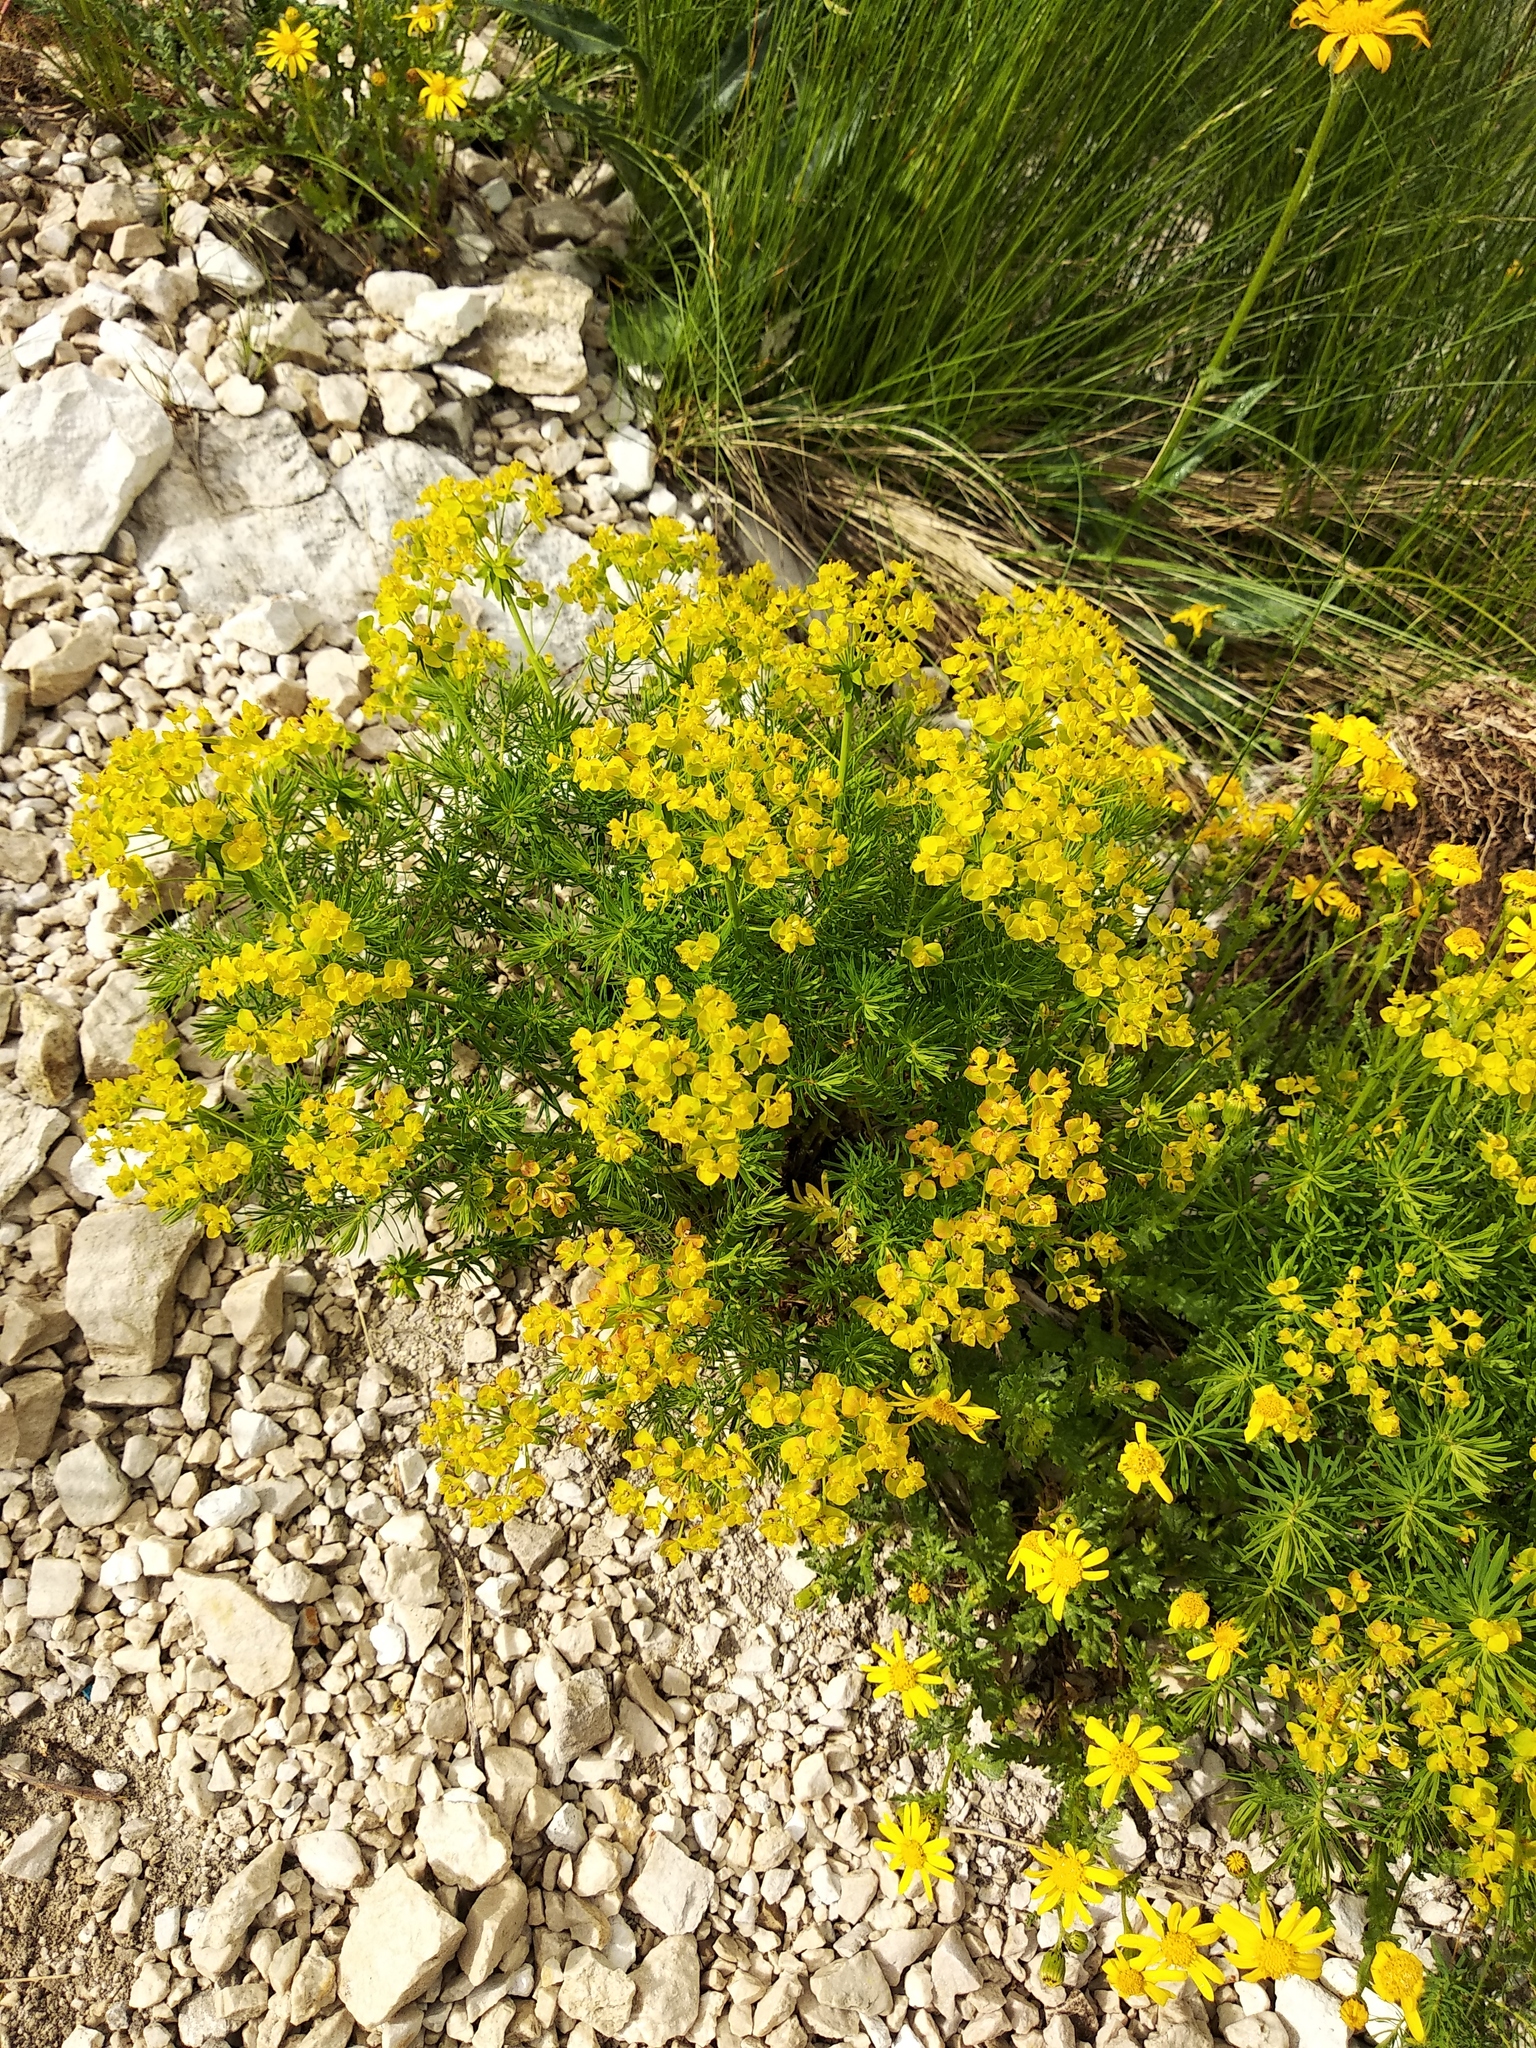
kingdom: Plantae
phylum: Tracheophyta
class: Magnoliopsida
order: Malpighiales
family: Euphorbiaceae
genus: Euphorbia
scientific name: Euphorbia cyparissias
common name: Cypress spurge
